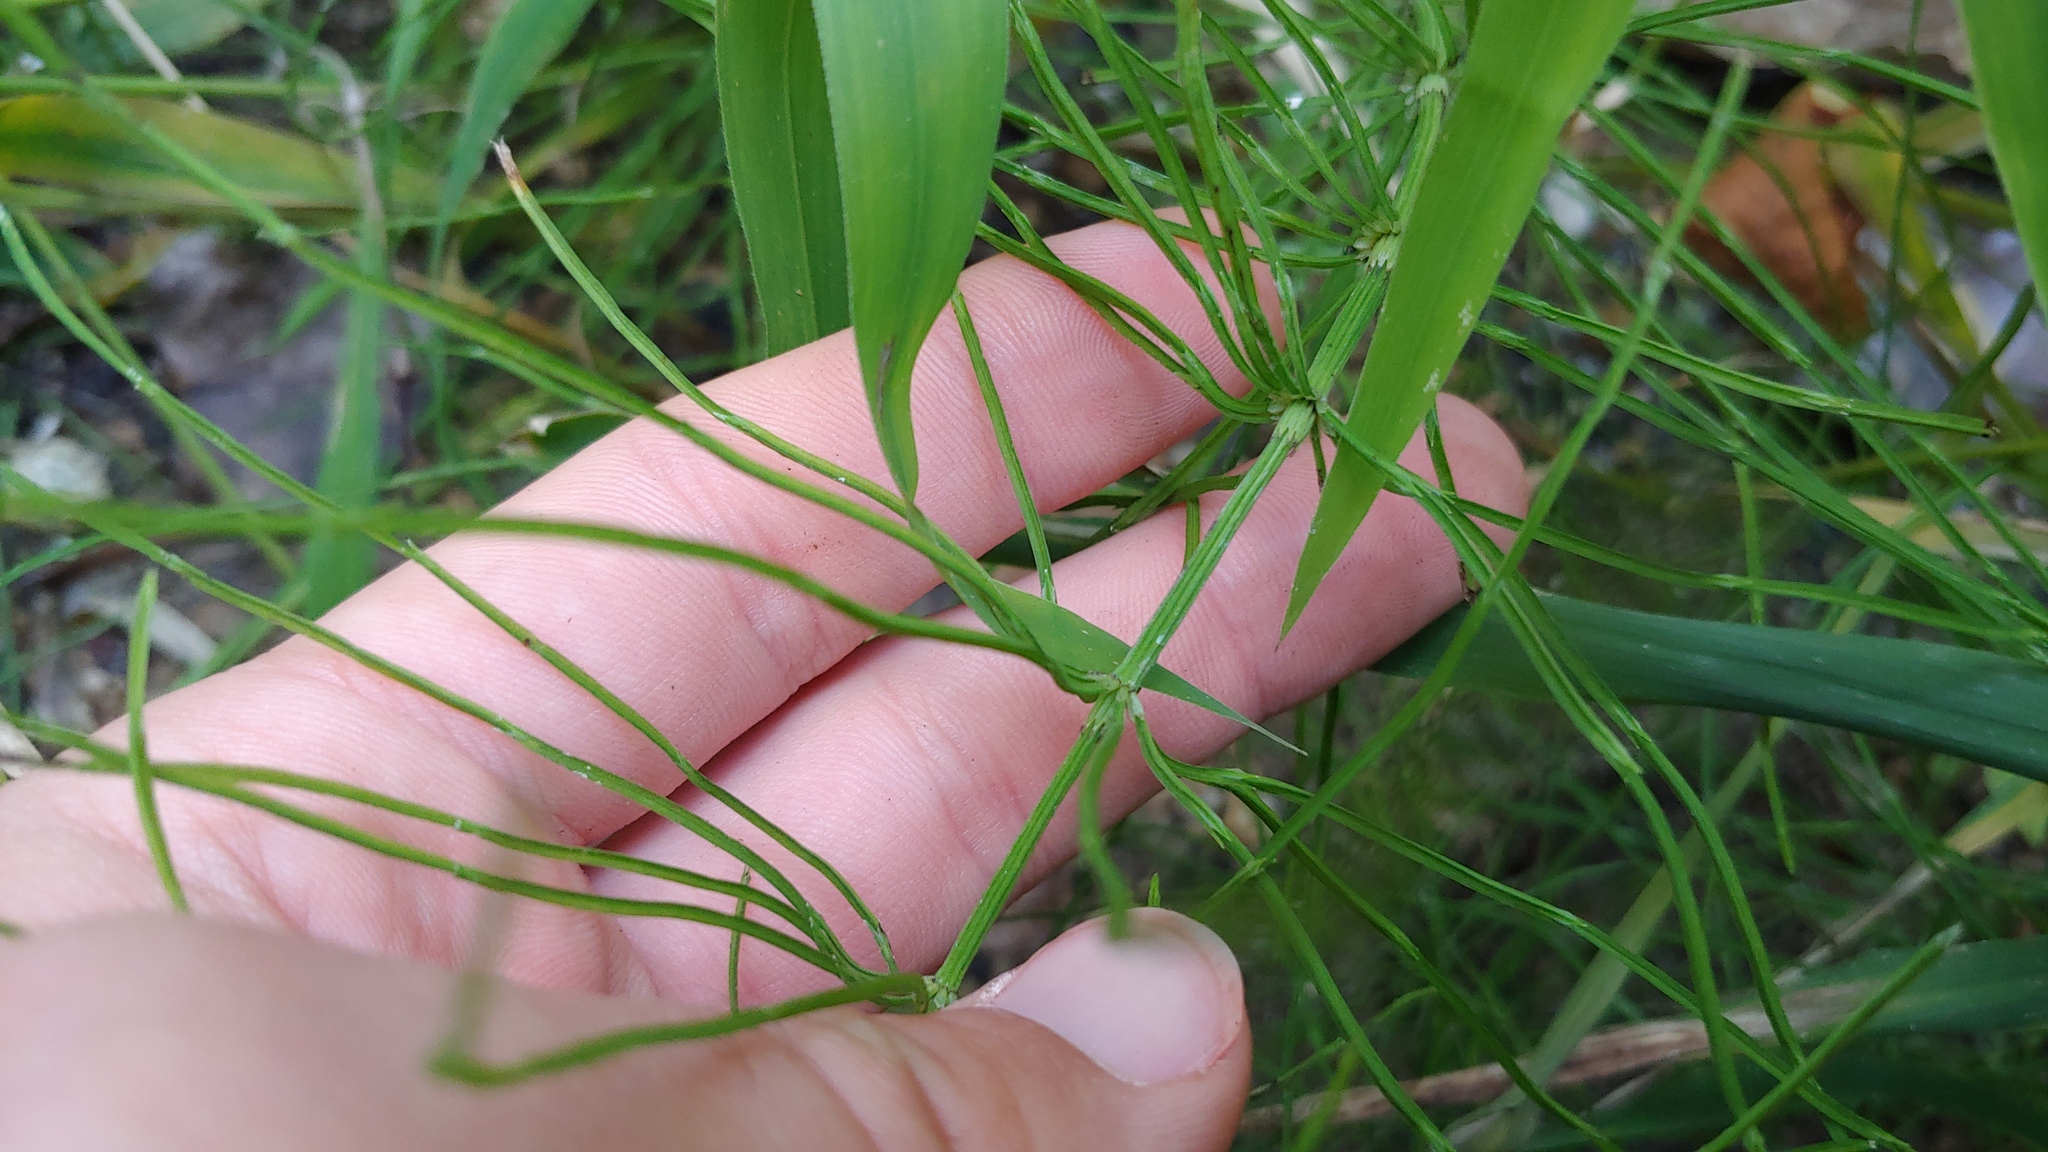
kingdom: Plantae
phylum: Tracheophyta
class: Polypodiopsida
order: Equisetales
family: Equisetaceae
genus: Equisetum
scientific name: Equisetum arvense
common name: Field horsetail
